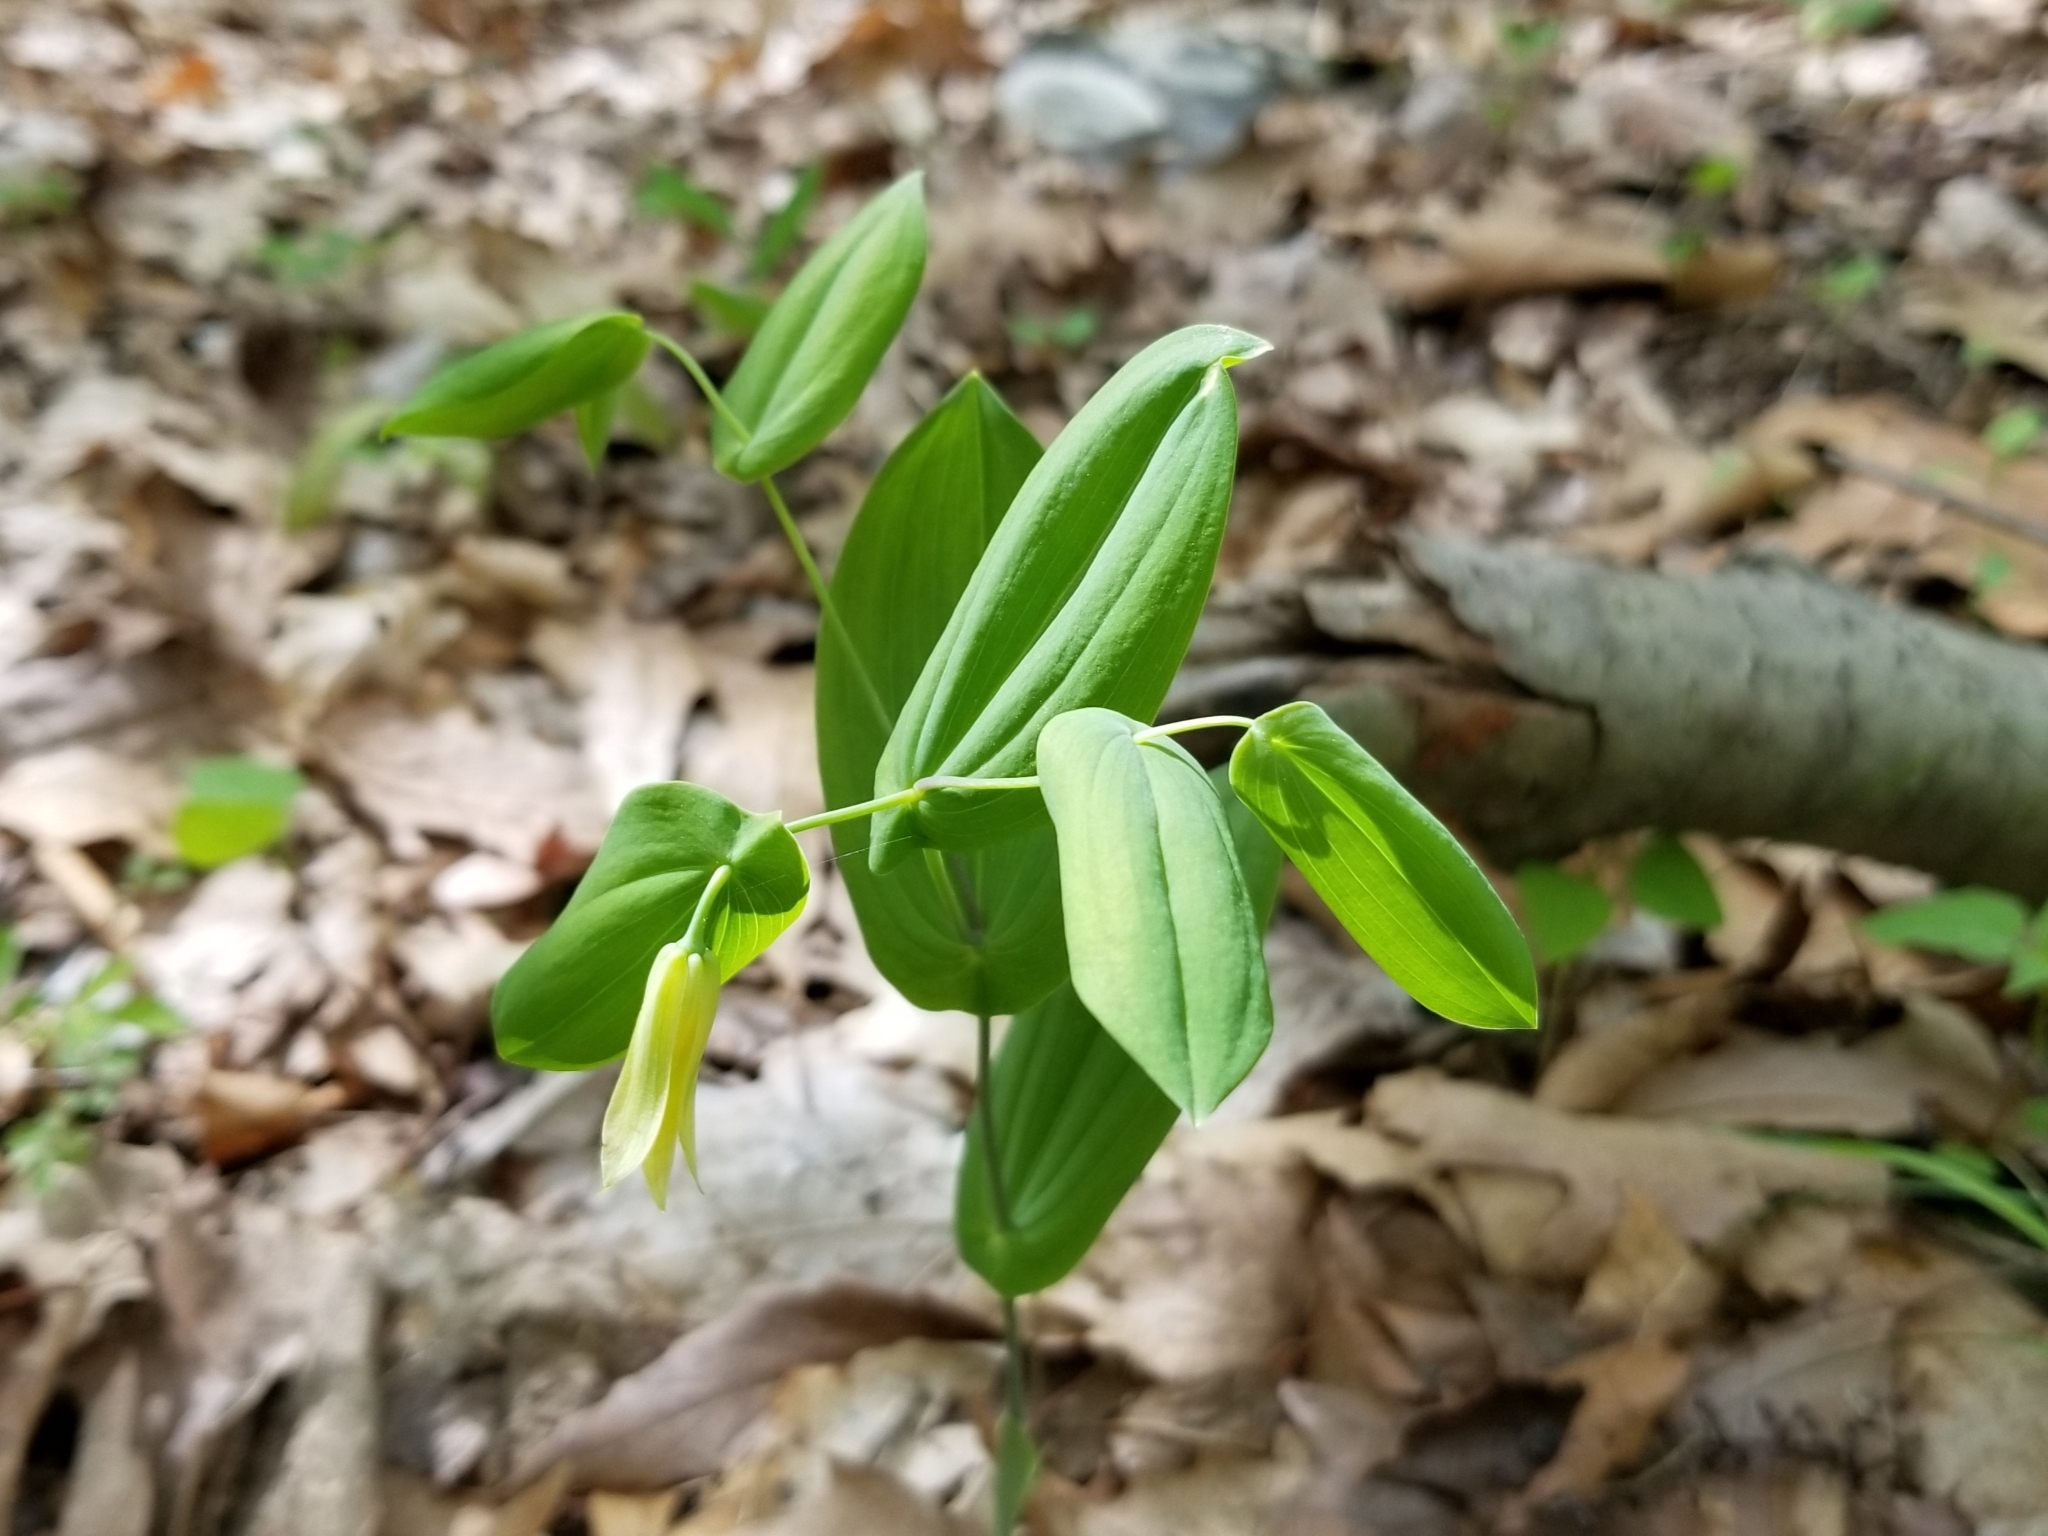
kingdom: Plantae
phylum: Tracheophyta
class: Liliopsida
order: Liliales
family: Colchicaceae
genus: Uvularia
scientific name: Uvularia perfoliata
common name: Perfoliate bellwort
